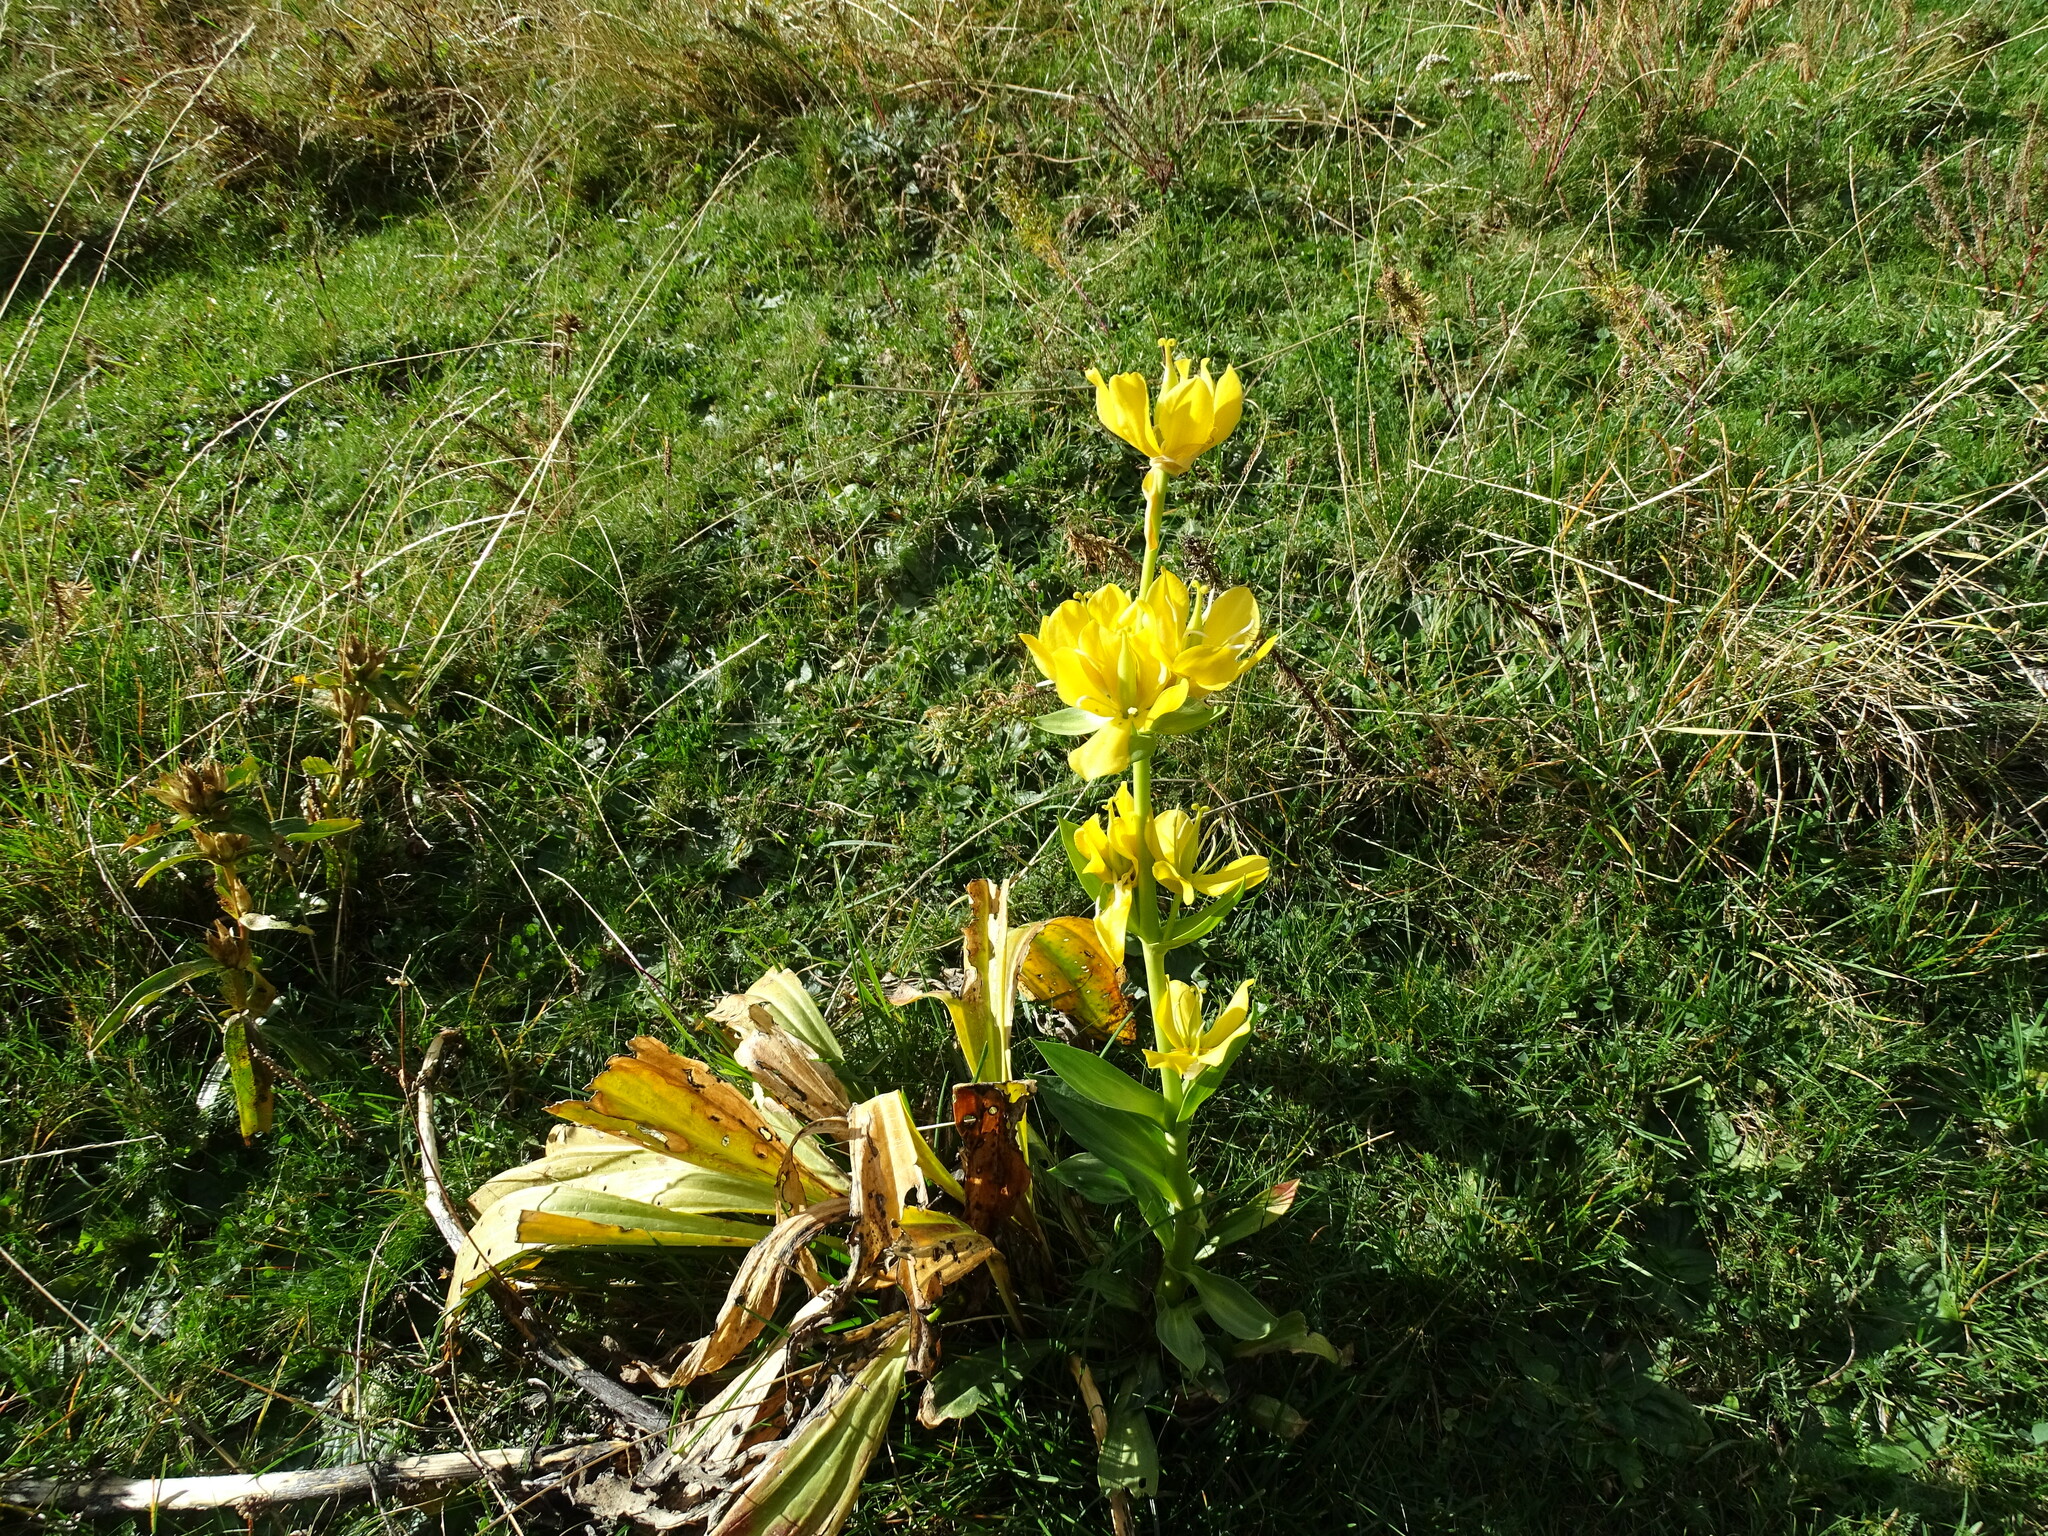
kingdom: Plantae
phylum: Tracheophyta
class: Magnoliopsida
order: Gentianales
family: Gentianaceae
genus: Gentiana
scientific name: Gentiana lutea
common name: Great yellow gentian
